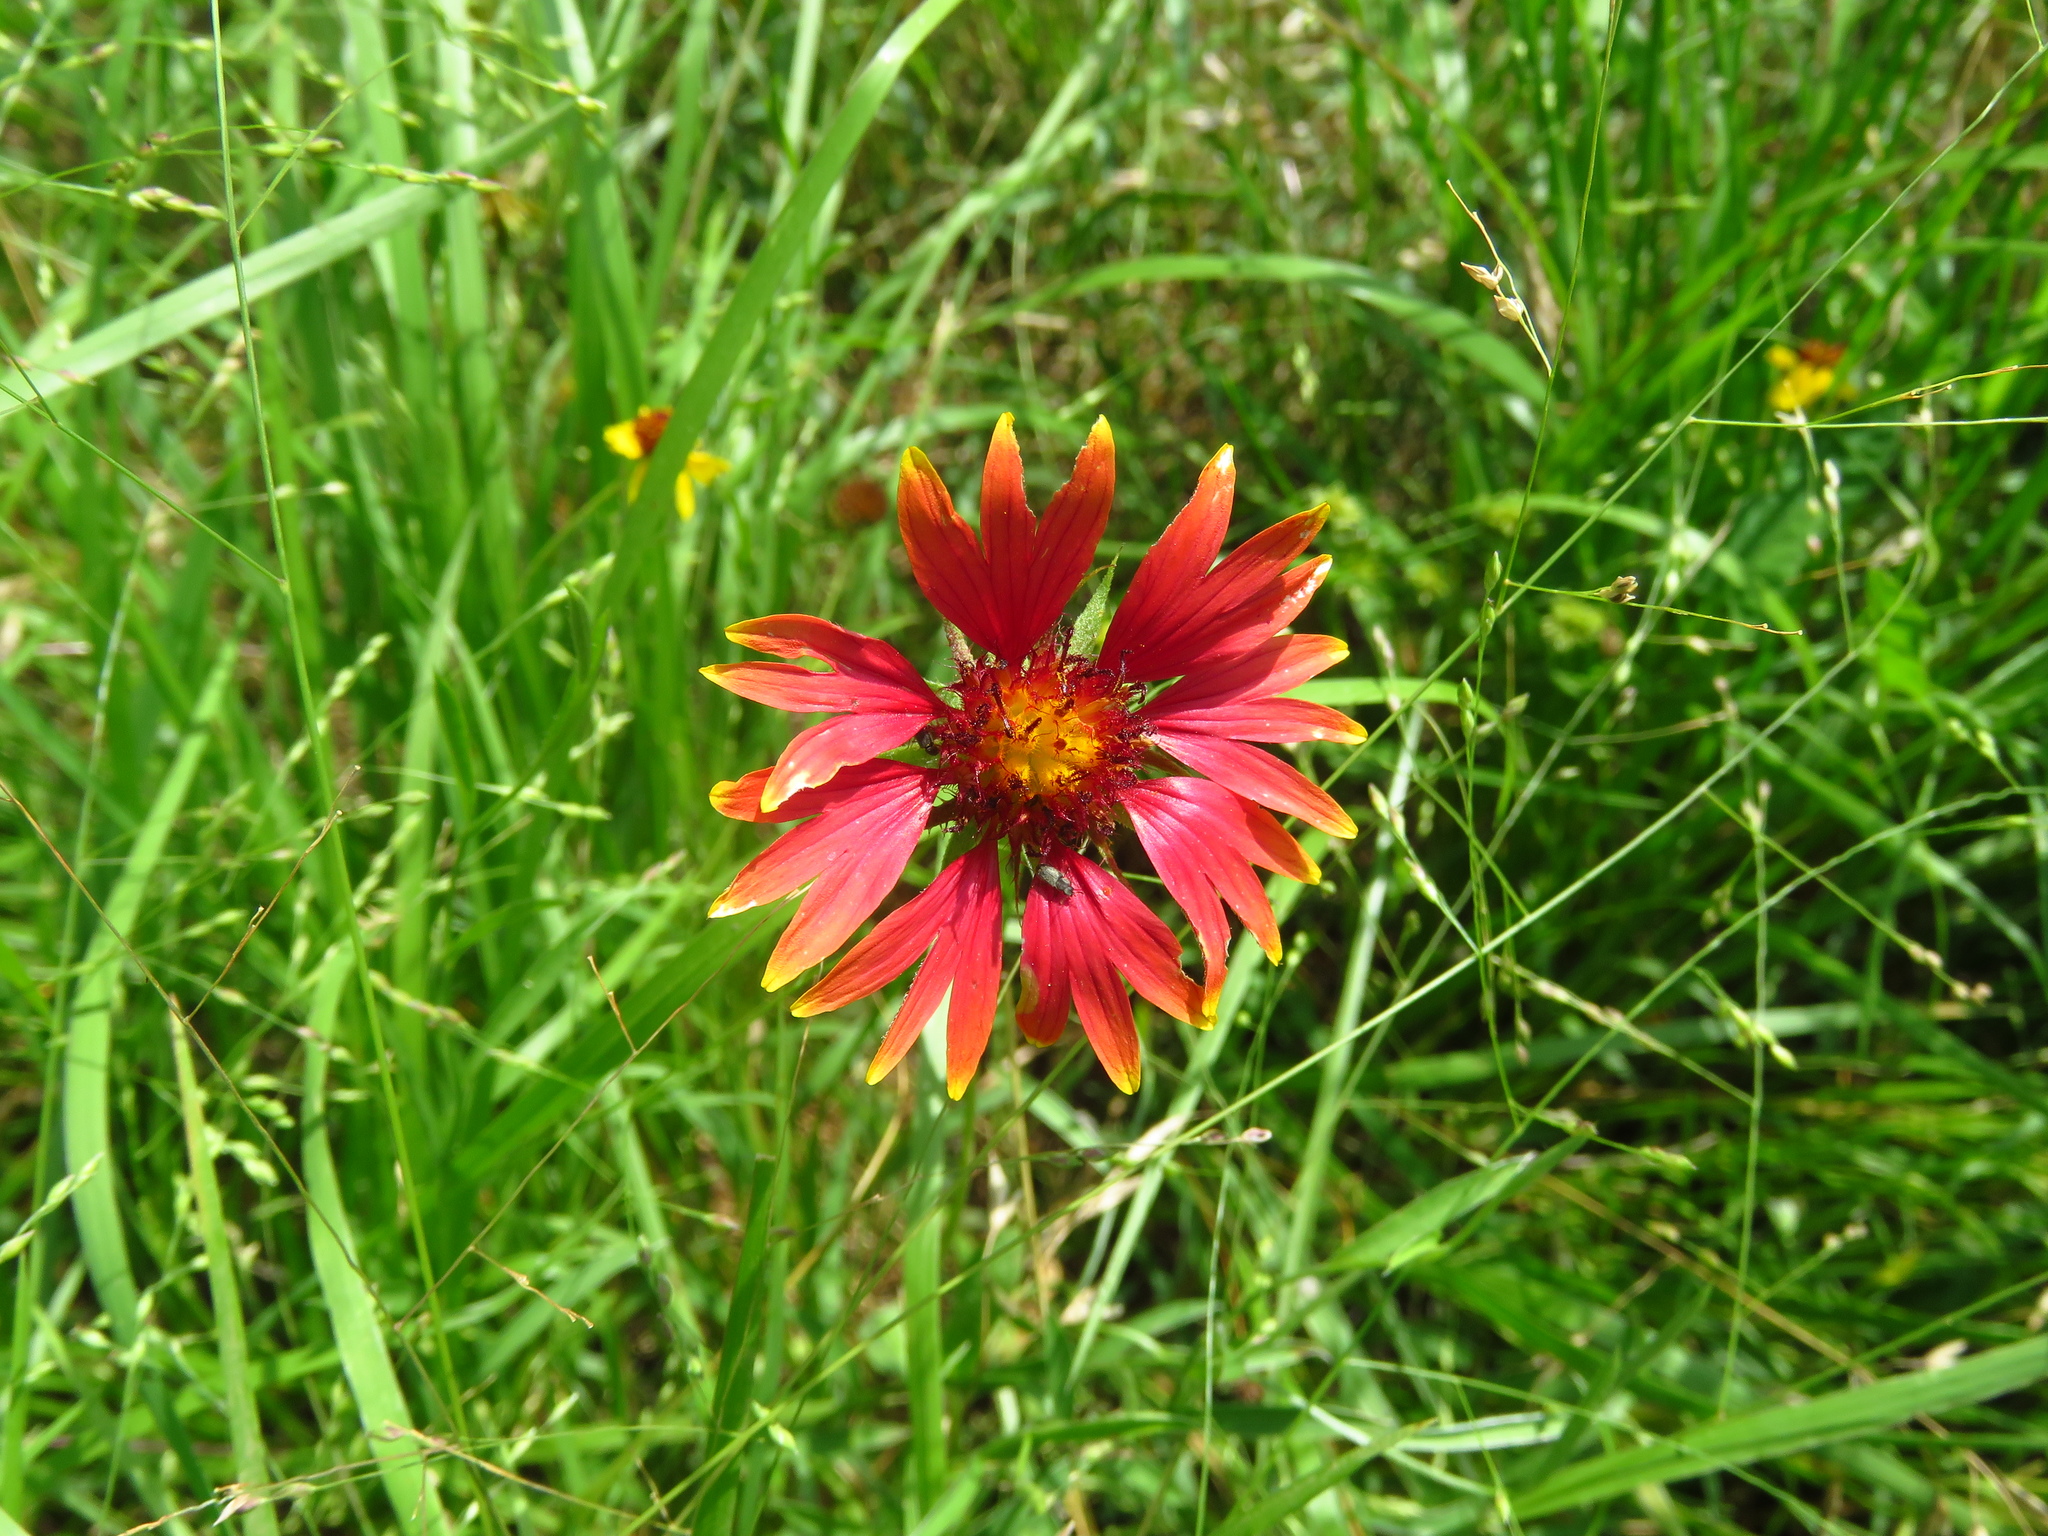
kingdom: Plantae
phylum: Tracheophyta
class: Magnoliopsida
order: Asterales
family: Asteraceae
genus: Gaillardia
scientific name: Gaillardia pulchella
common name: Firewheel
